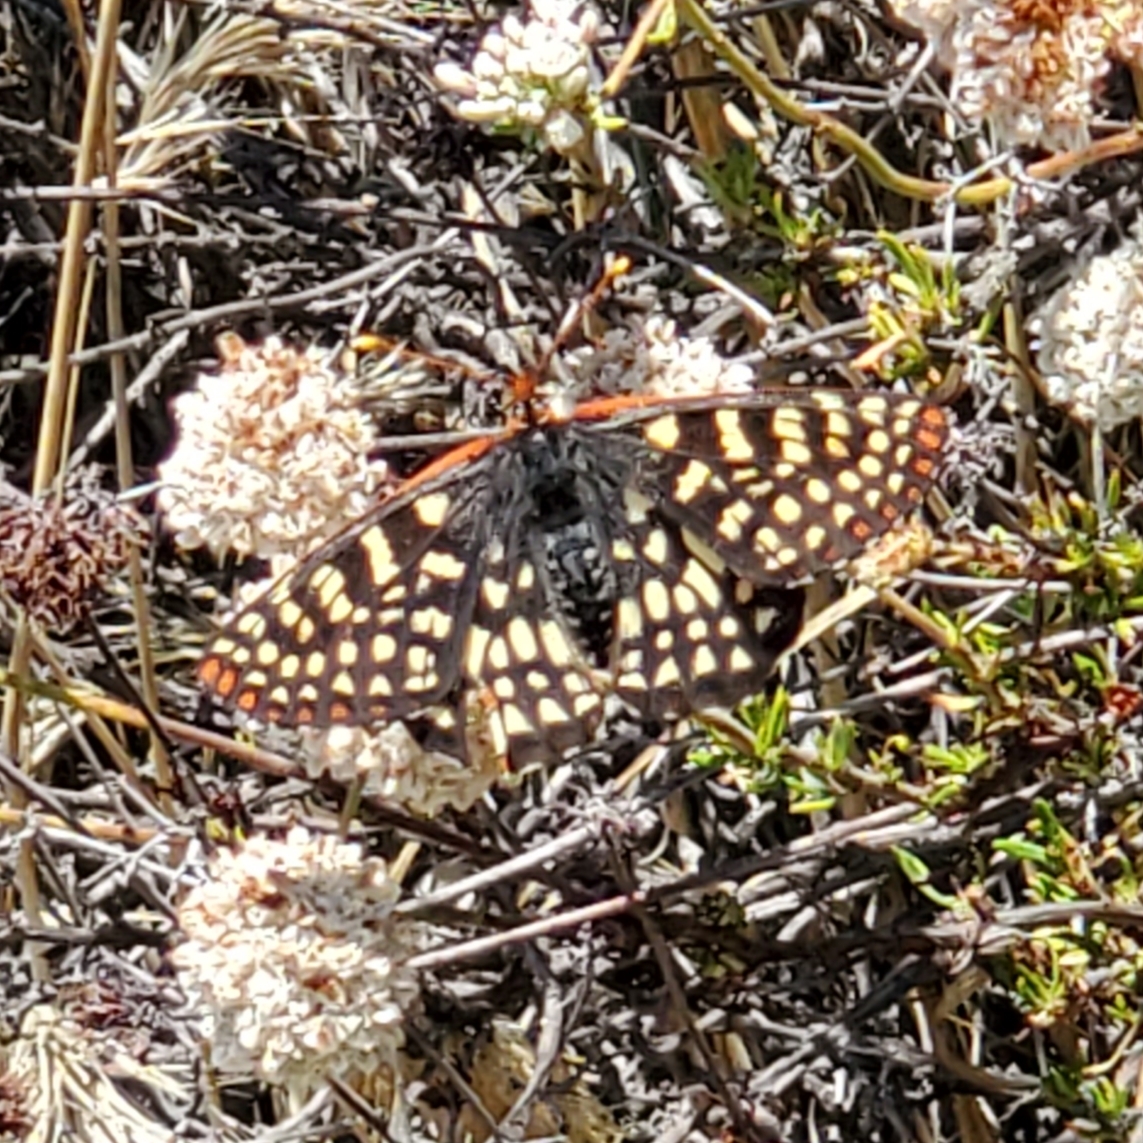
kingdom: Animalia
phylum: Arthropoda
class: Insecta
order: Lepidoptera
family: Nymphalidae
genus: Occidryas
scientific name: Occidryas chalcedona
